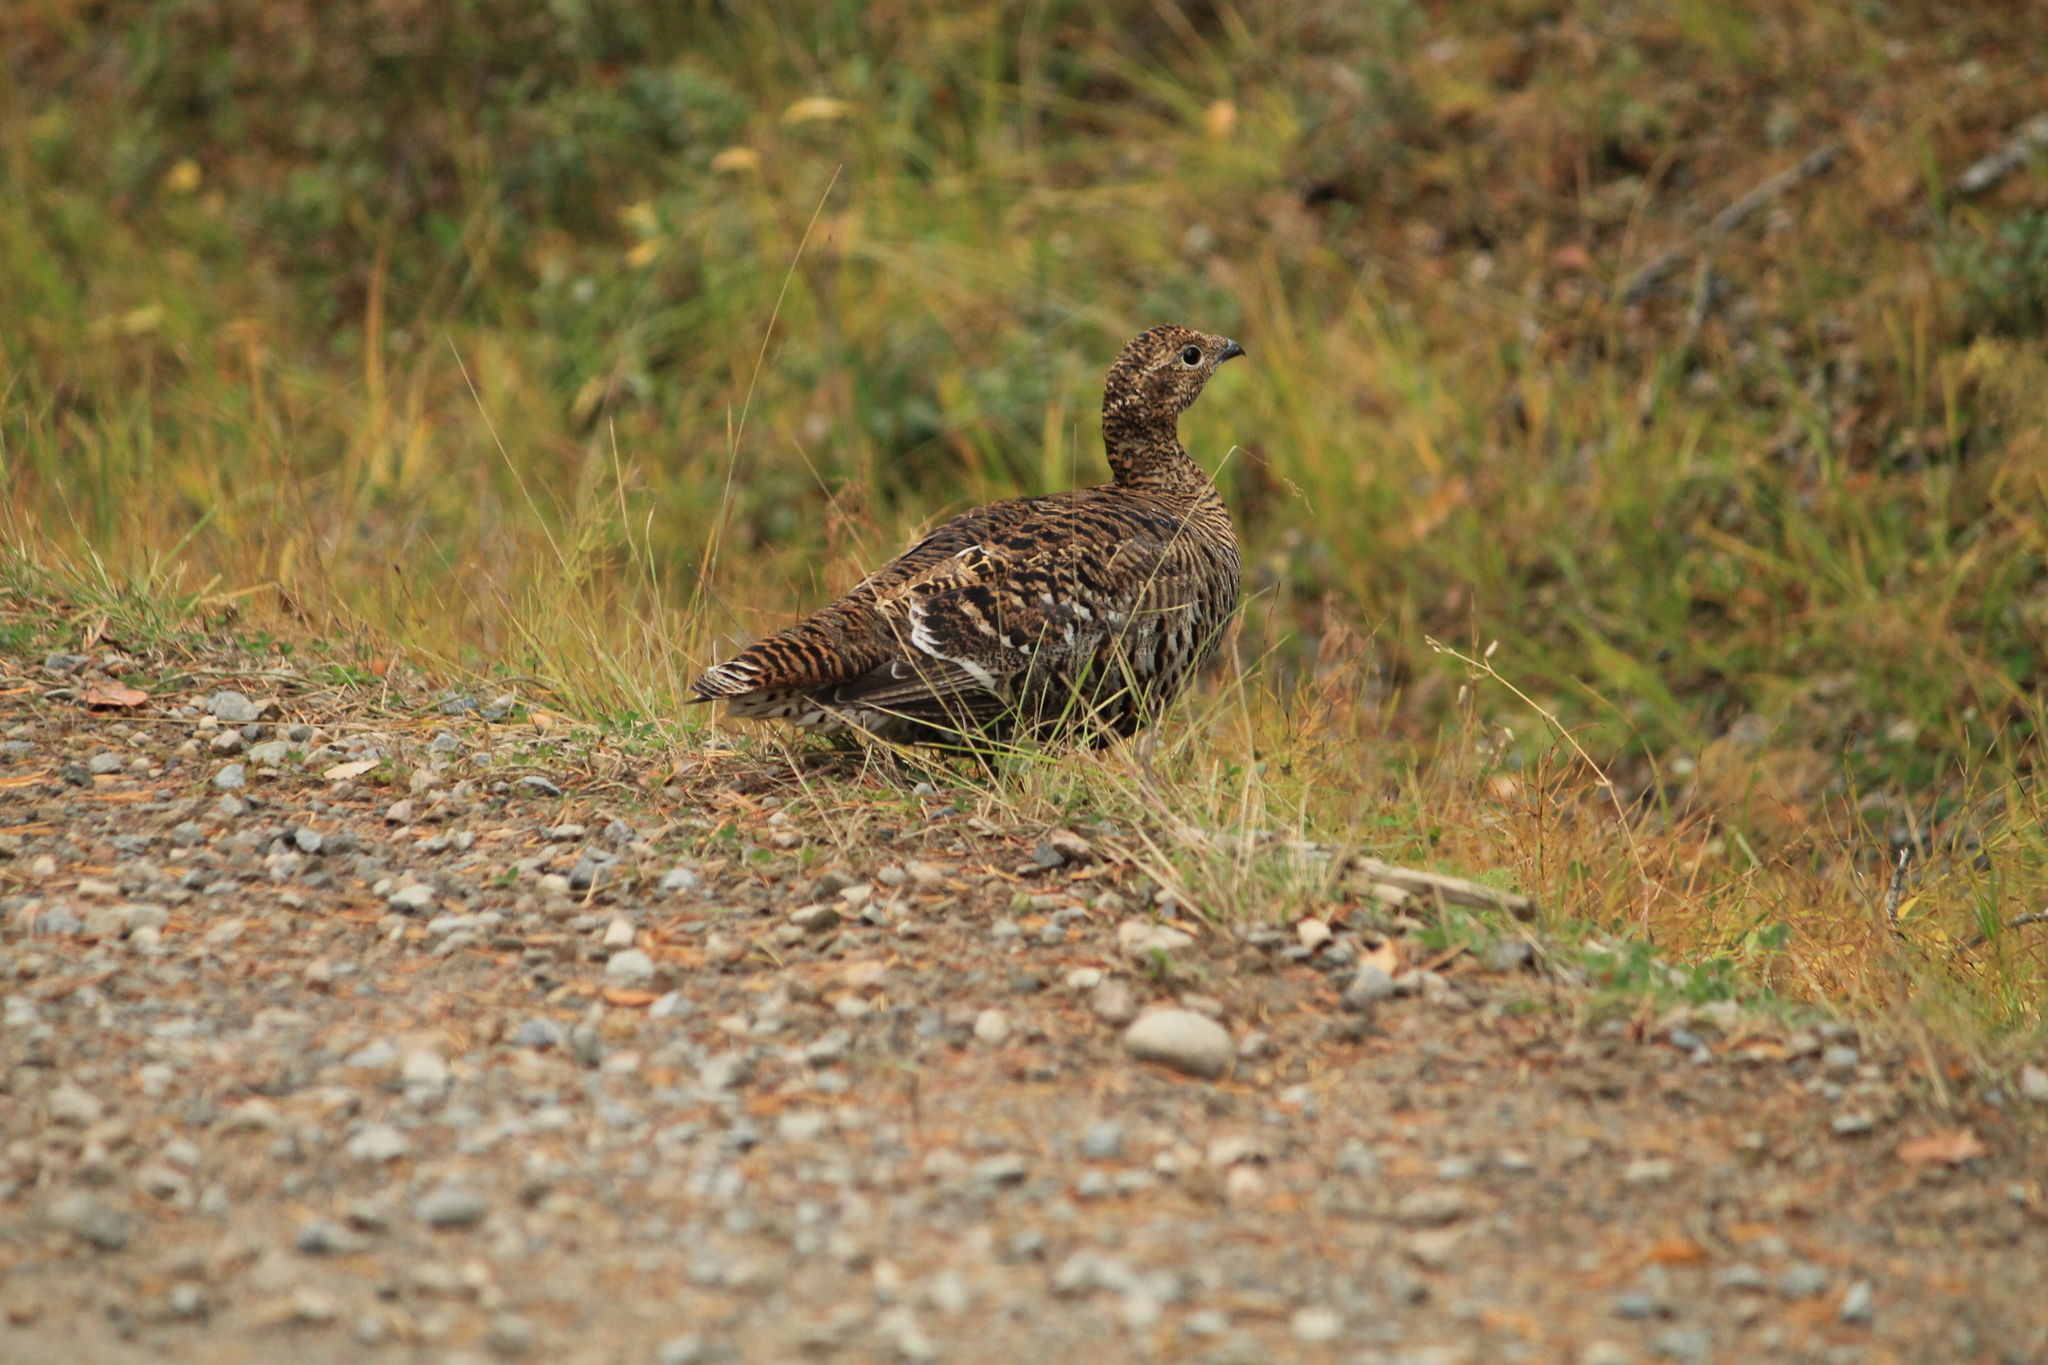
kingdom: Animalia
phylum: Chordata
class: Aves
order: Galliformes
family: Phasianidae
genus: Lyrurus
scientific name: Lyrurus tetrix
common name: Black grouse
